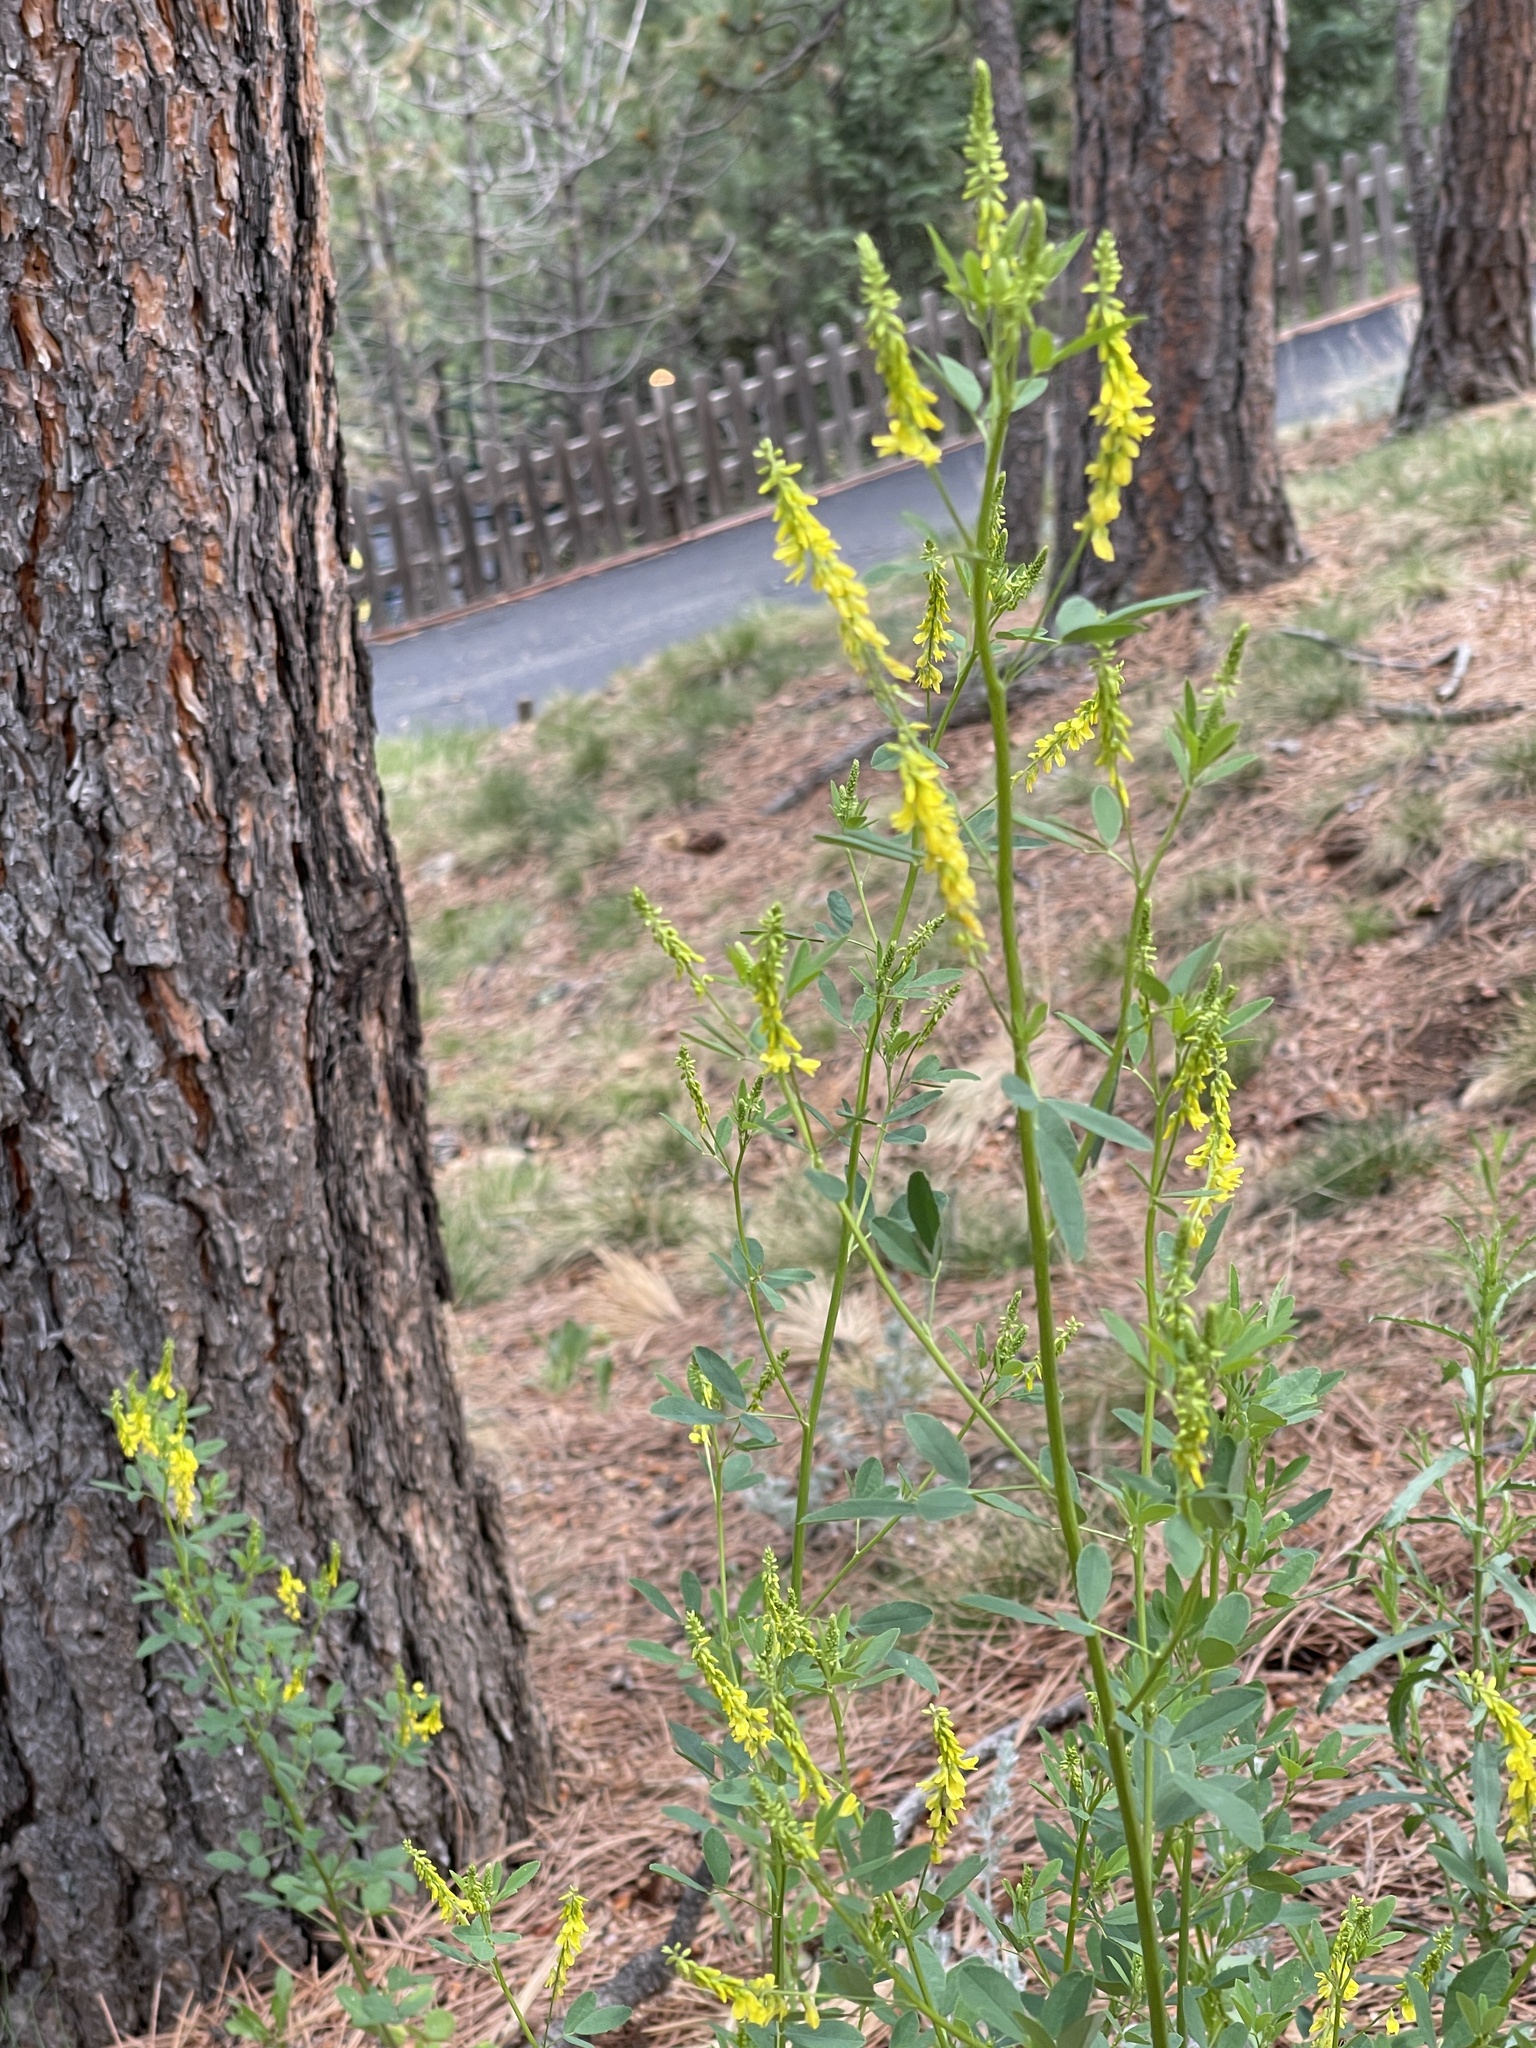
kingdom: Plantae
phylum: Tracheophyta
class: Magnoliopsida
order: Fabales
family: Fabaceae
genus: Melilotus
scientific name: Melilotus officinalis
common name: Sweetclover
